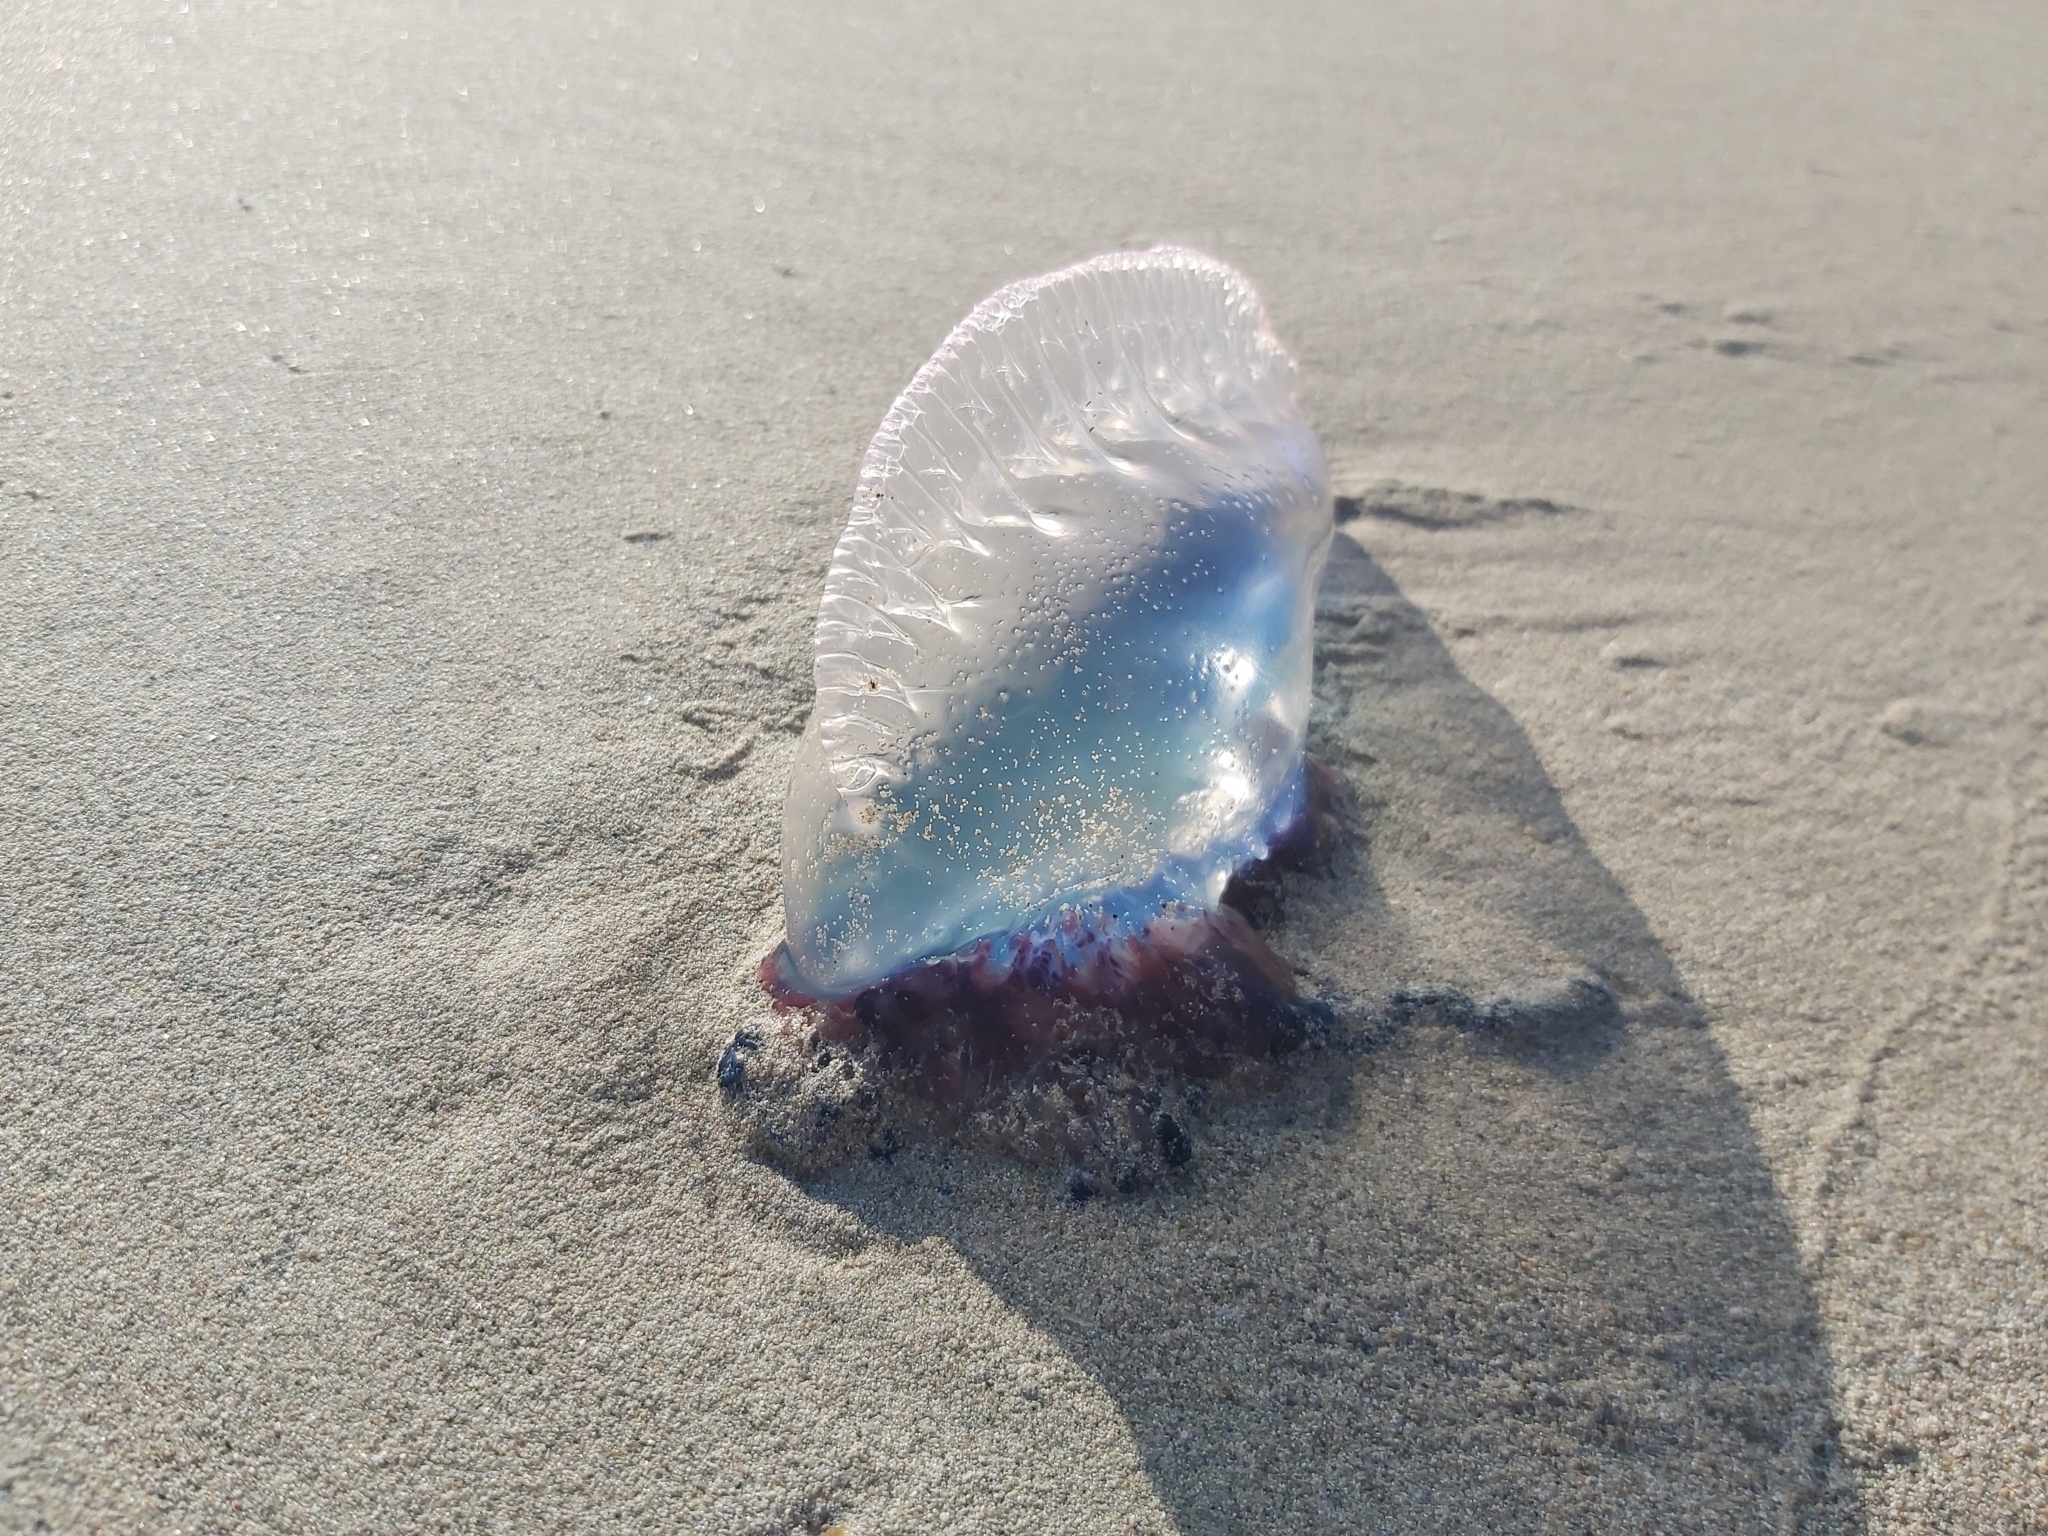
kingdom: Animalia
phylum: Cnidaria
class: Hydrozoa
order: Siphonophorae
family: Physaliidae
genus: Physalia
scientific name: Physalia physalis
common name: Portuguese man-of-war
